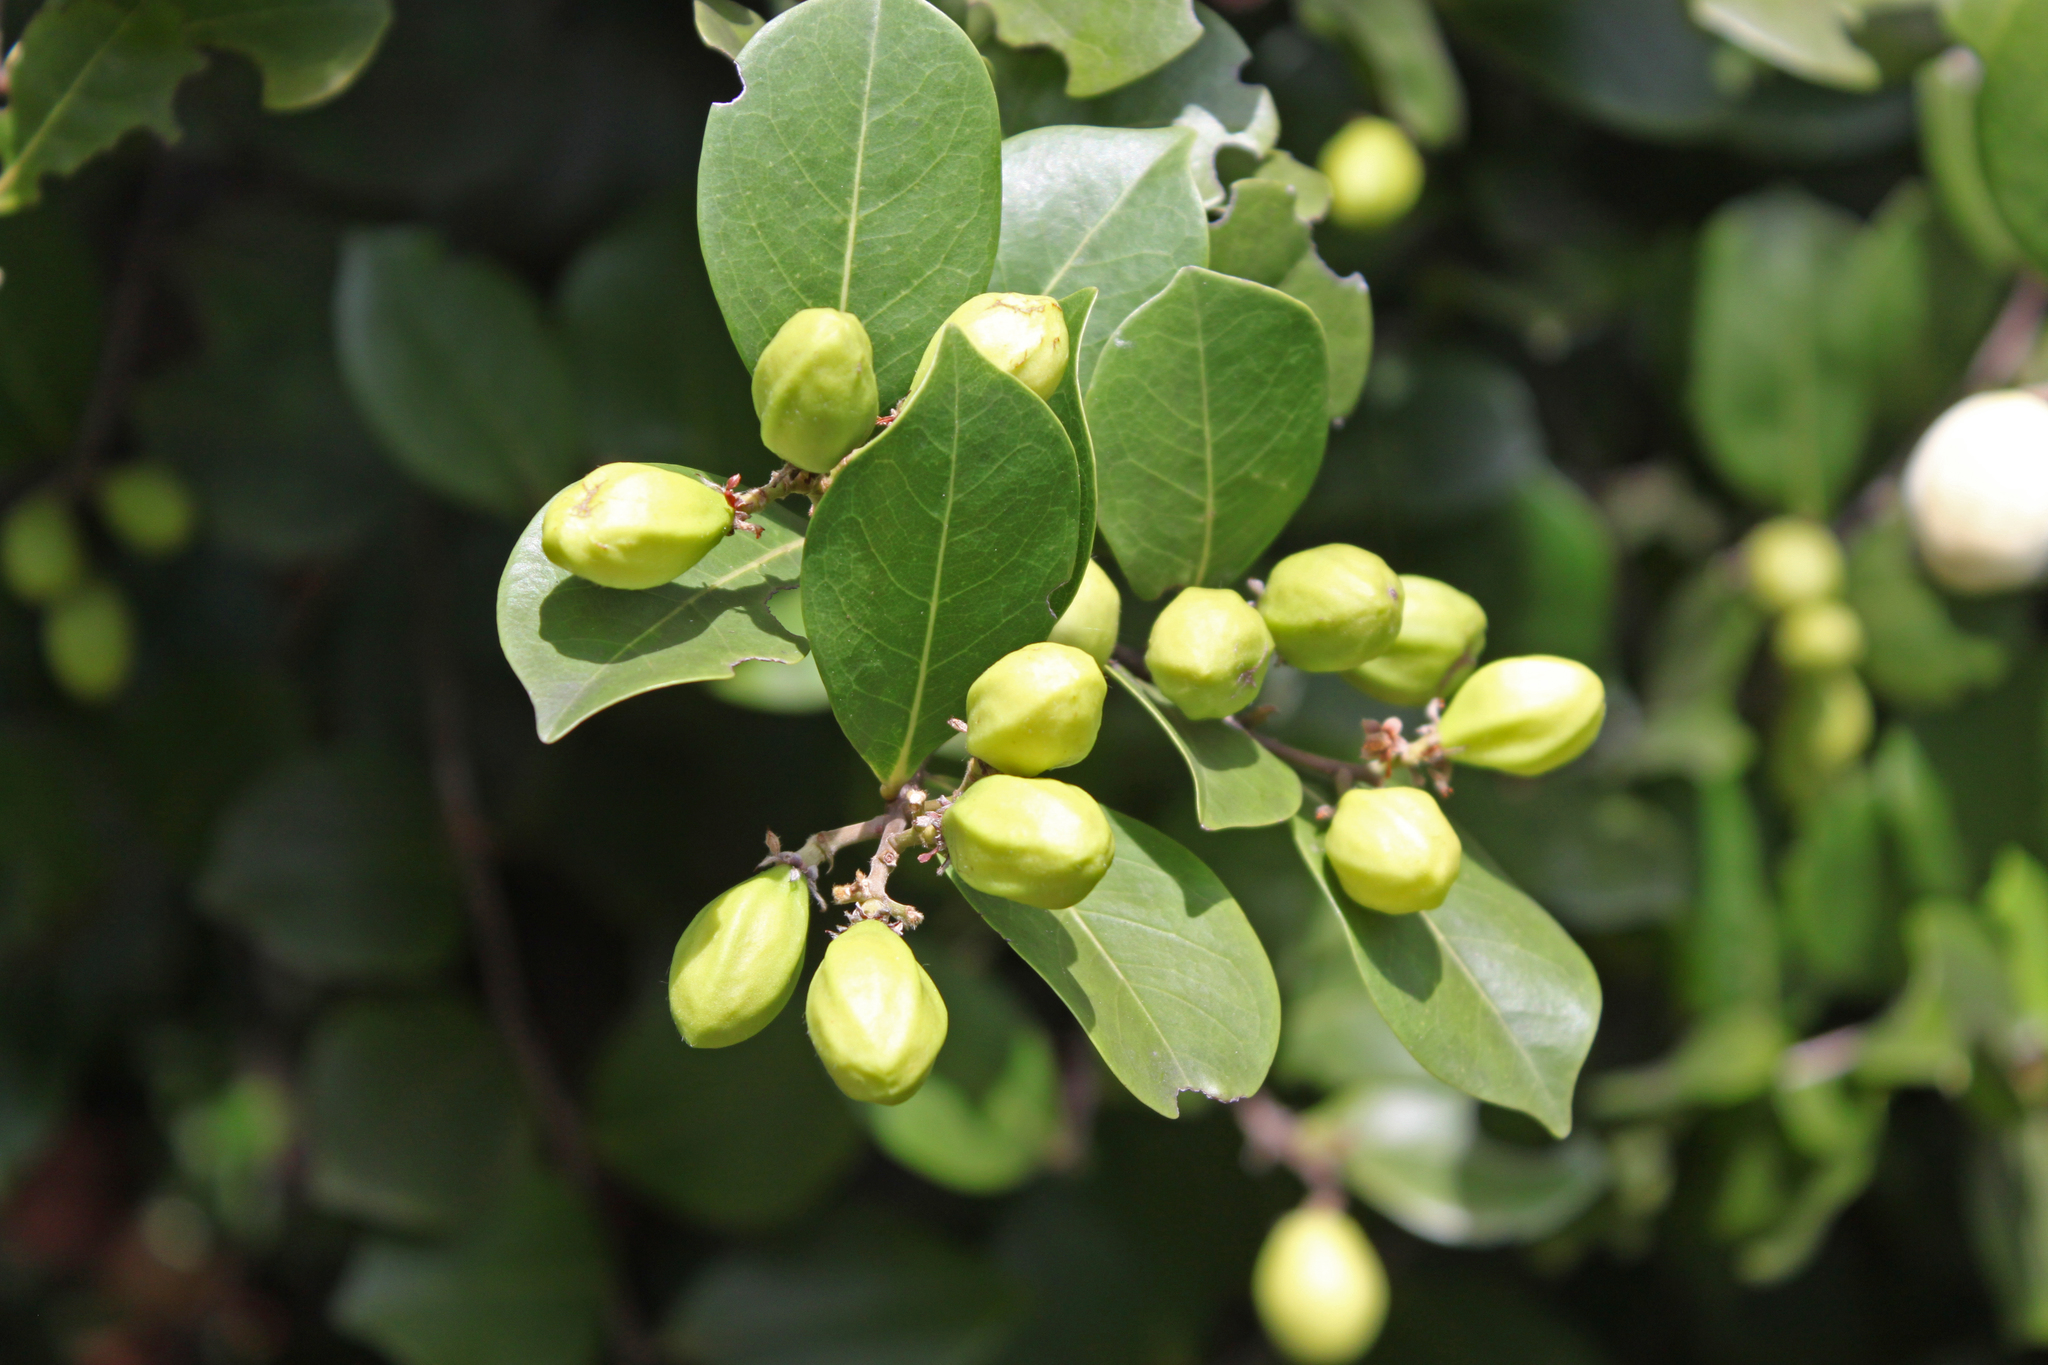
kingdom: Plantae
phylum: Tracheophyta
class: Magnoliopsida
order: Malpighiales
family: Chrysobalanaceae
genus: Chrysobalanus
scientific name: Chrysobalanus icaco
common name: Coco plum
